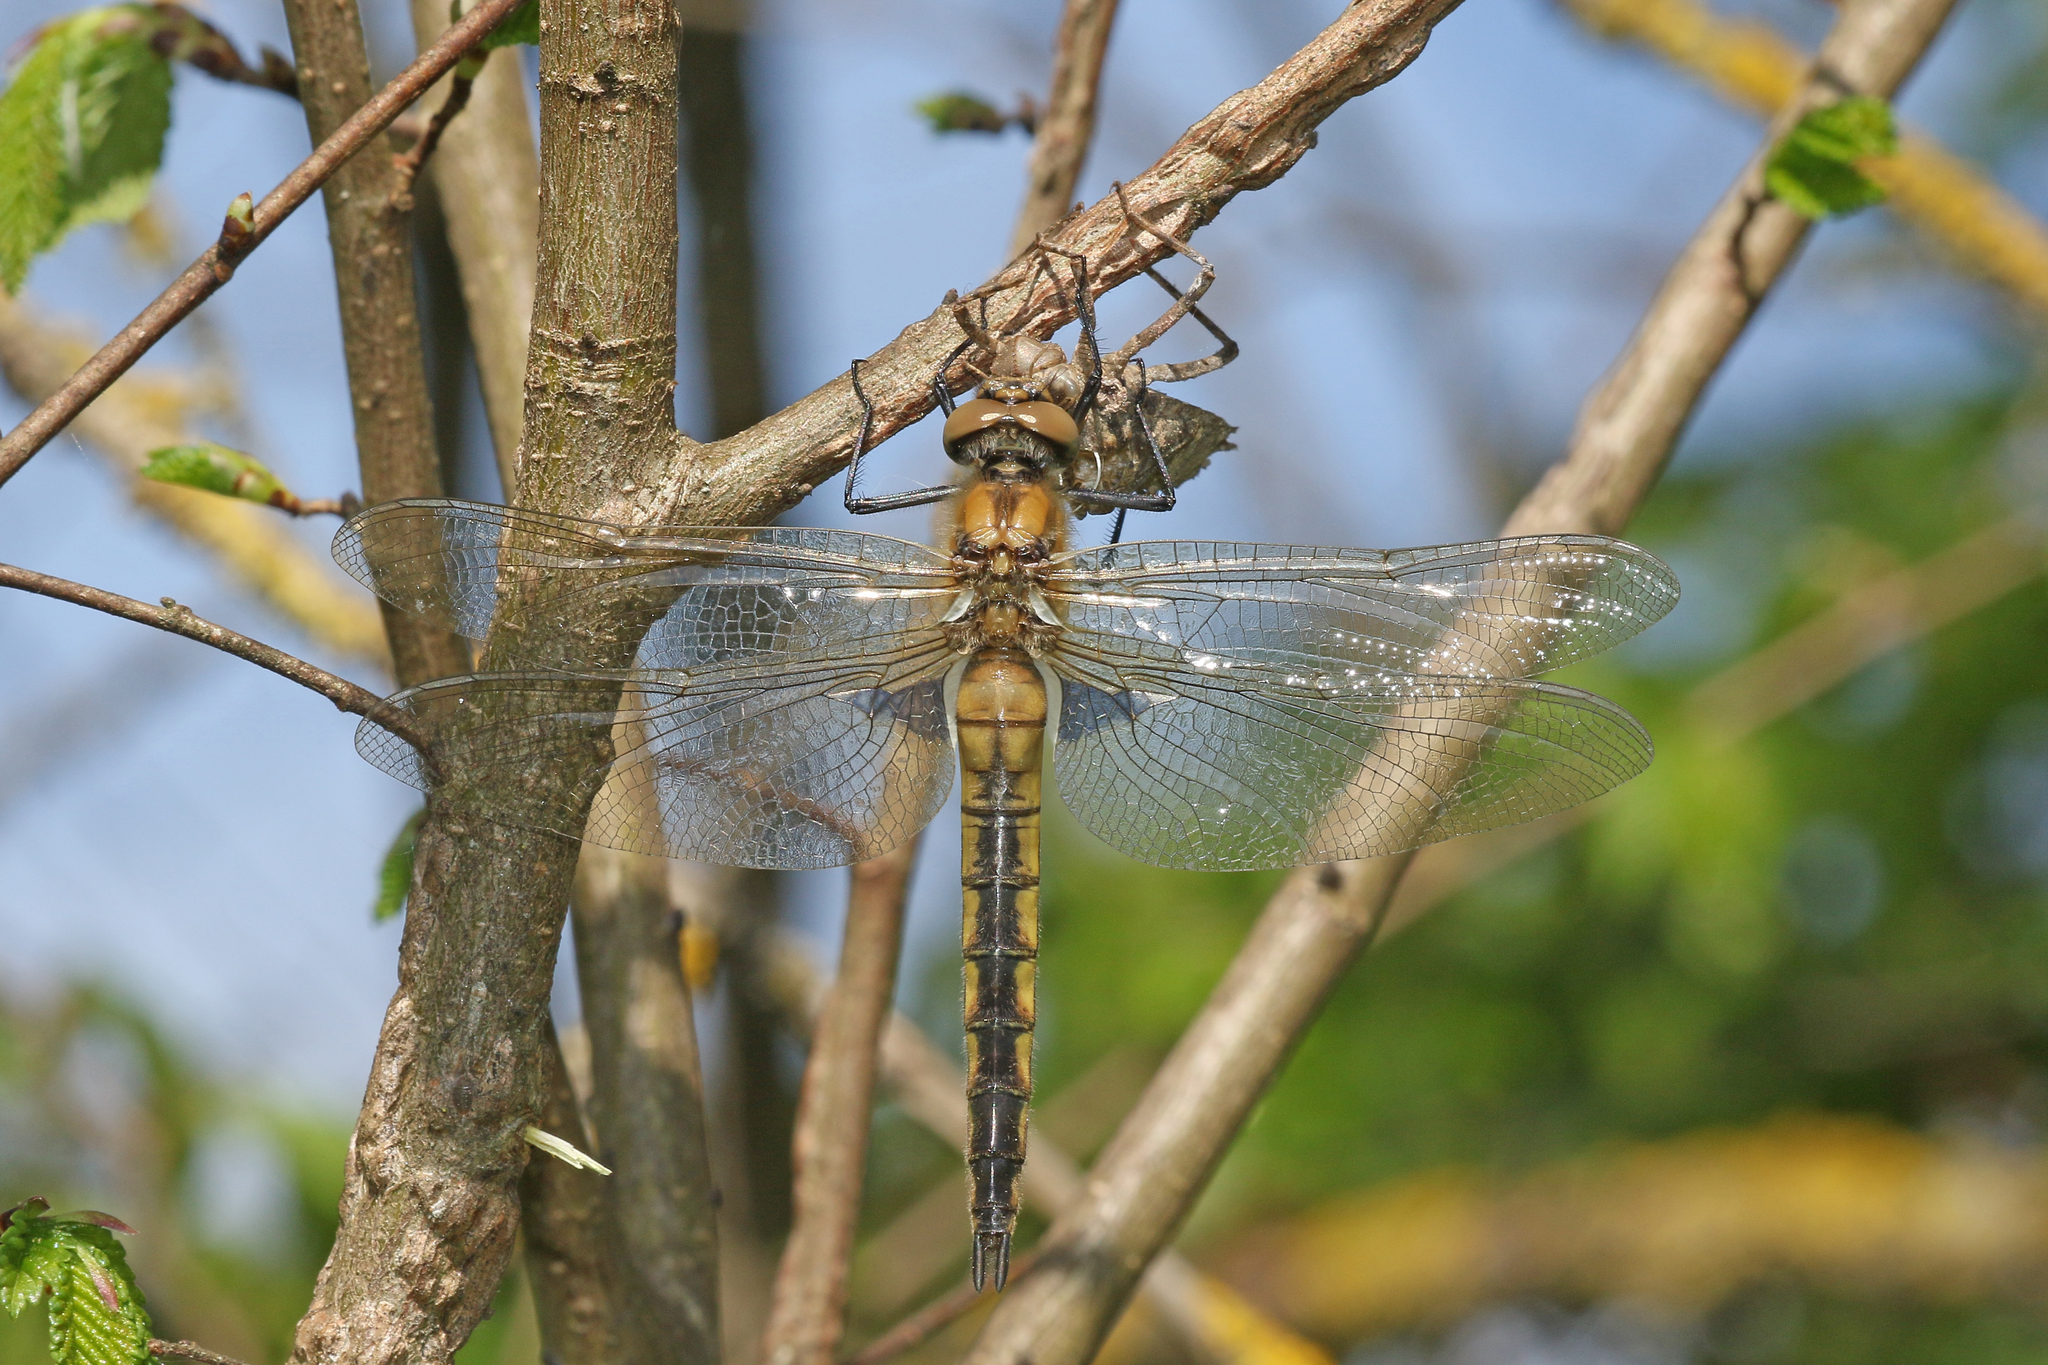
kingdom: Animalia
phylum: Arthropoda
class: Insecta
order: Odonata
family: Corduliidae
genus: Epitheca
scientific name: Epitheca bimaculata
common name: Eurasian baskettail
